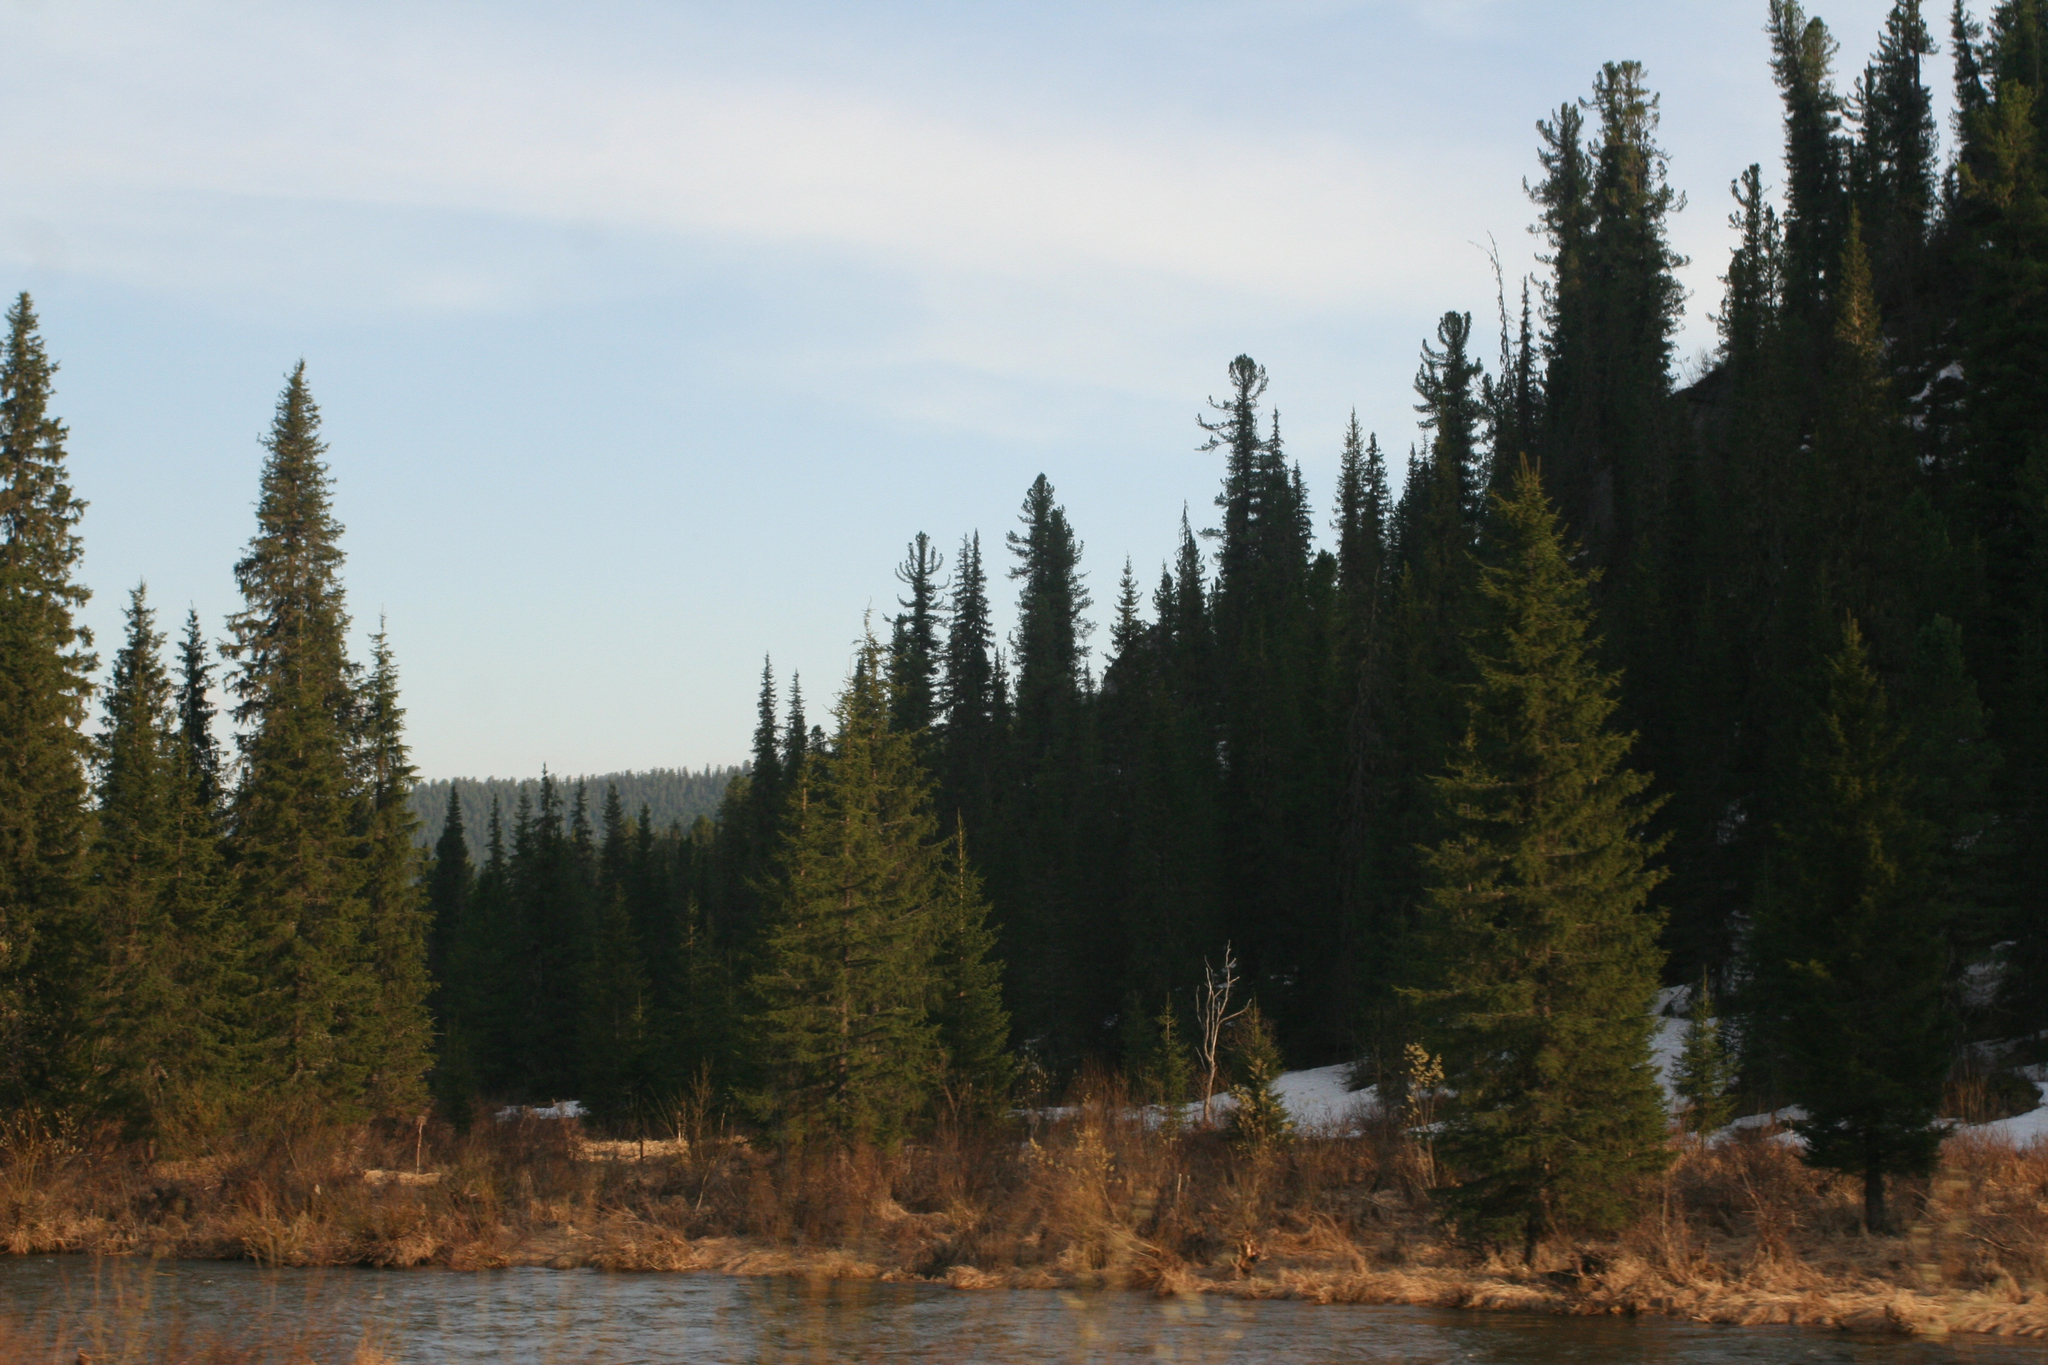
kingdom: Plantae
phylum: Tracheophyta
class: Pinopsida
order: Pinales
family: Pinaceae
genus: Picea
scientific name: Picea obovata
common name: Siberian spruce
